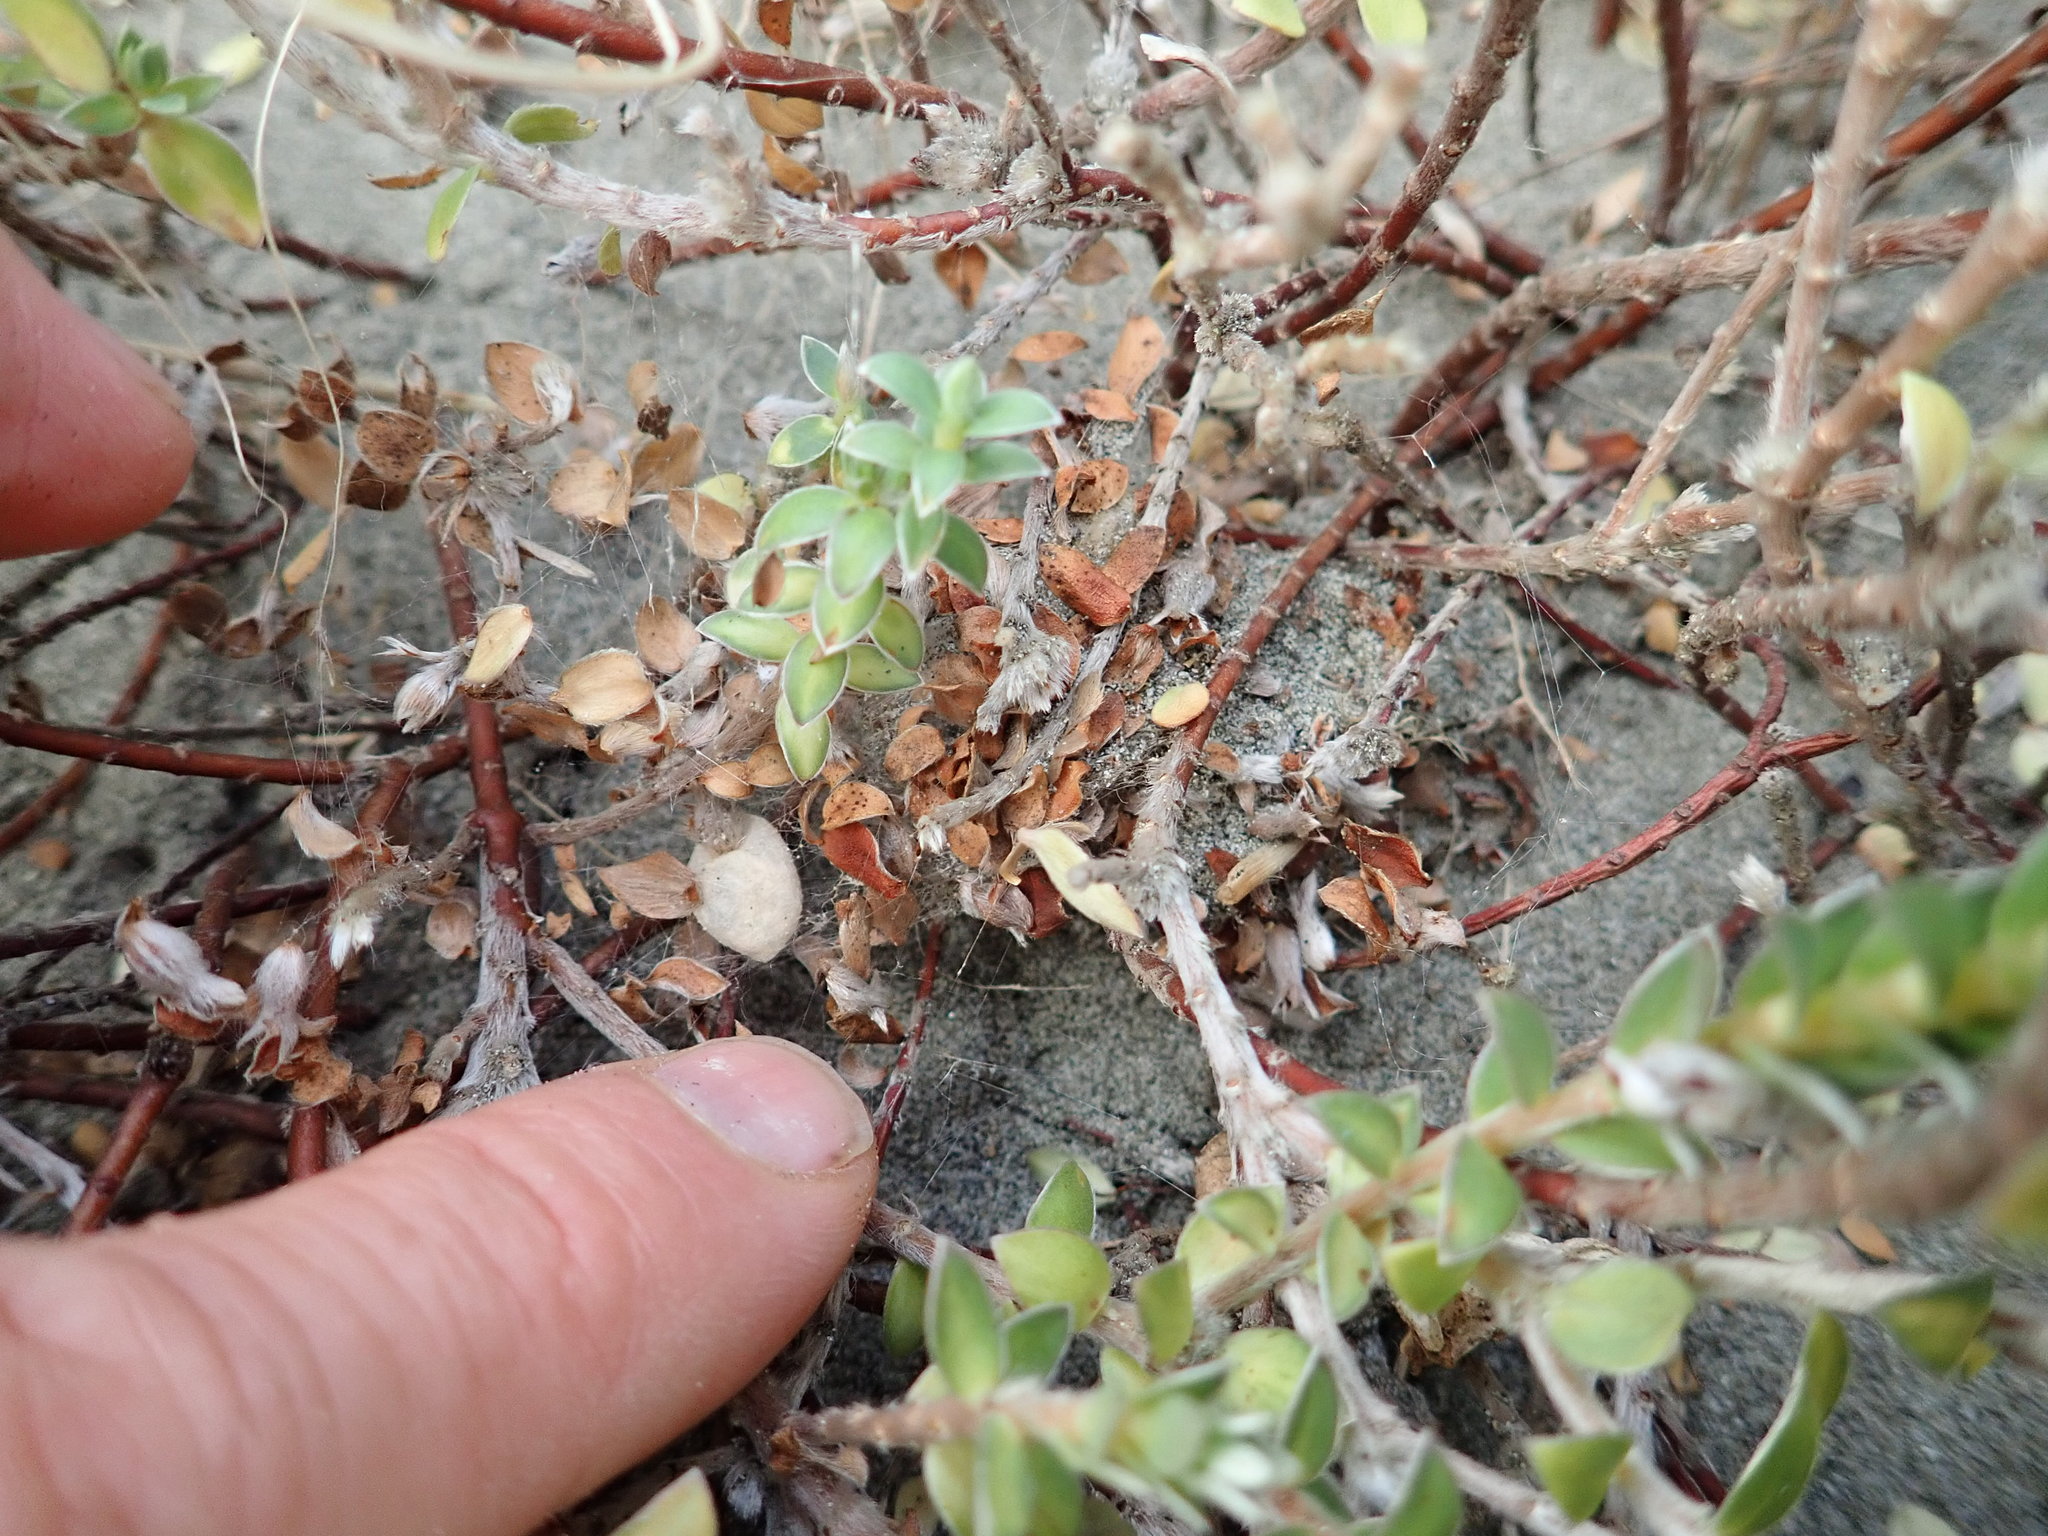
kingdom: Animalia
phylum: Arthropoda
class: Arachnida
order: Araneae
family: Theridiidae
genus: Latrodectus
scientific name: Latrodectus katipo
